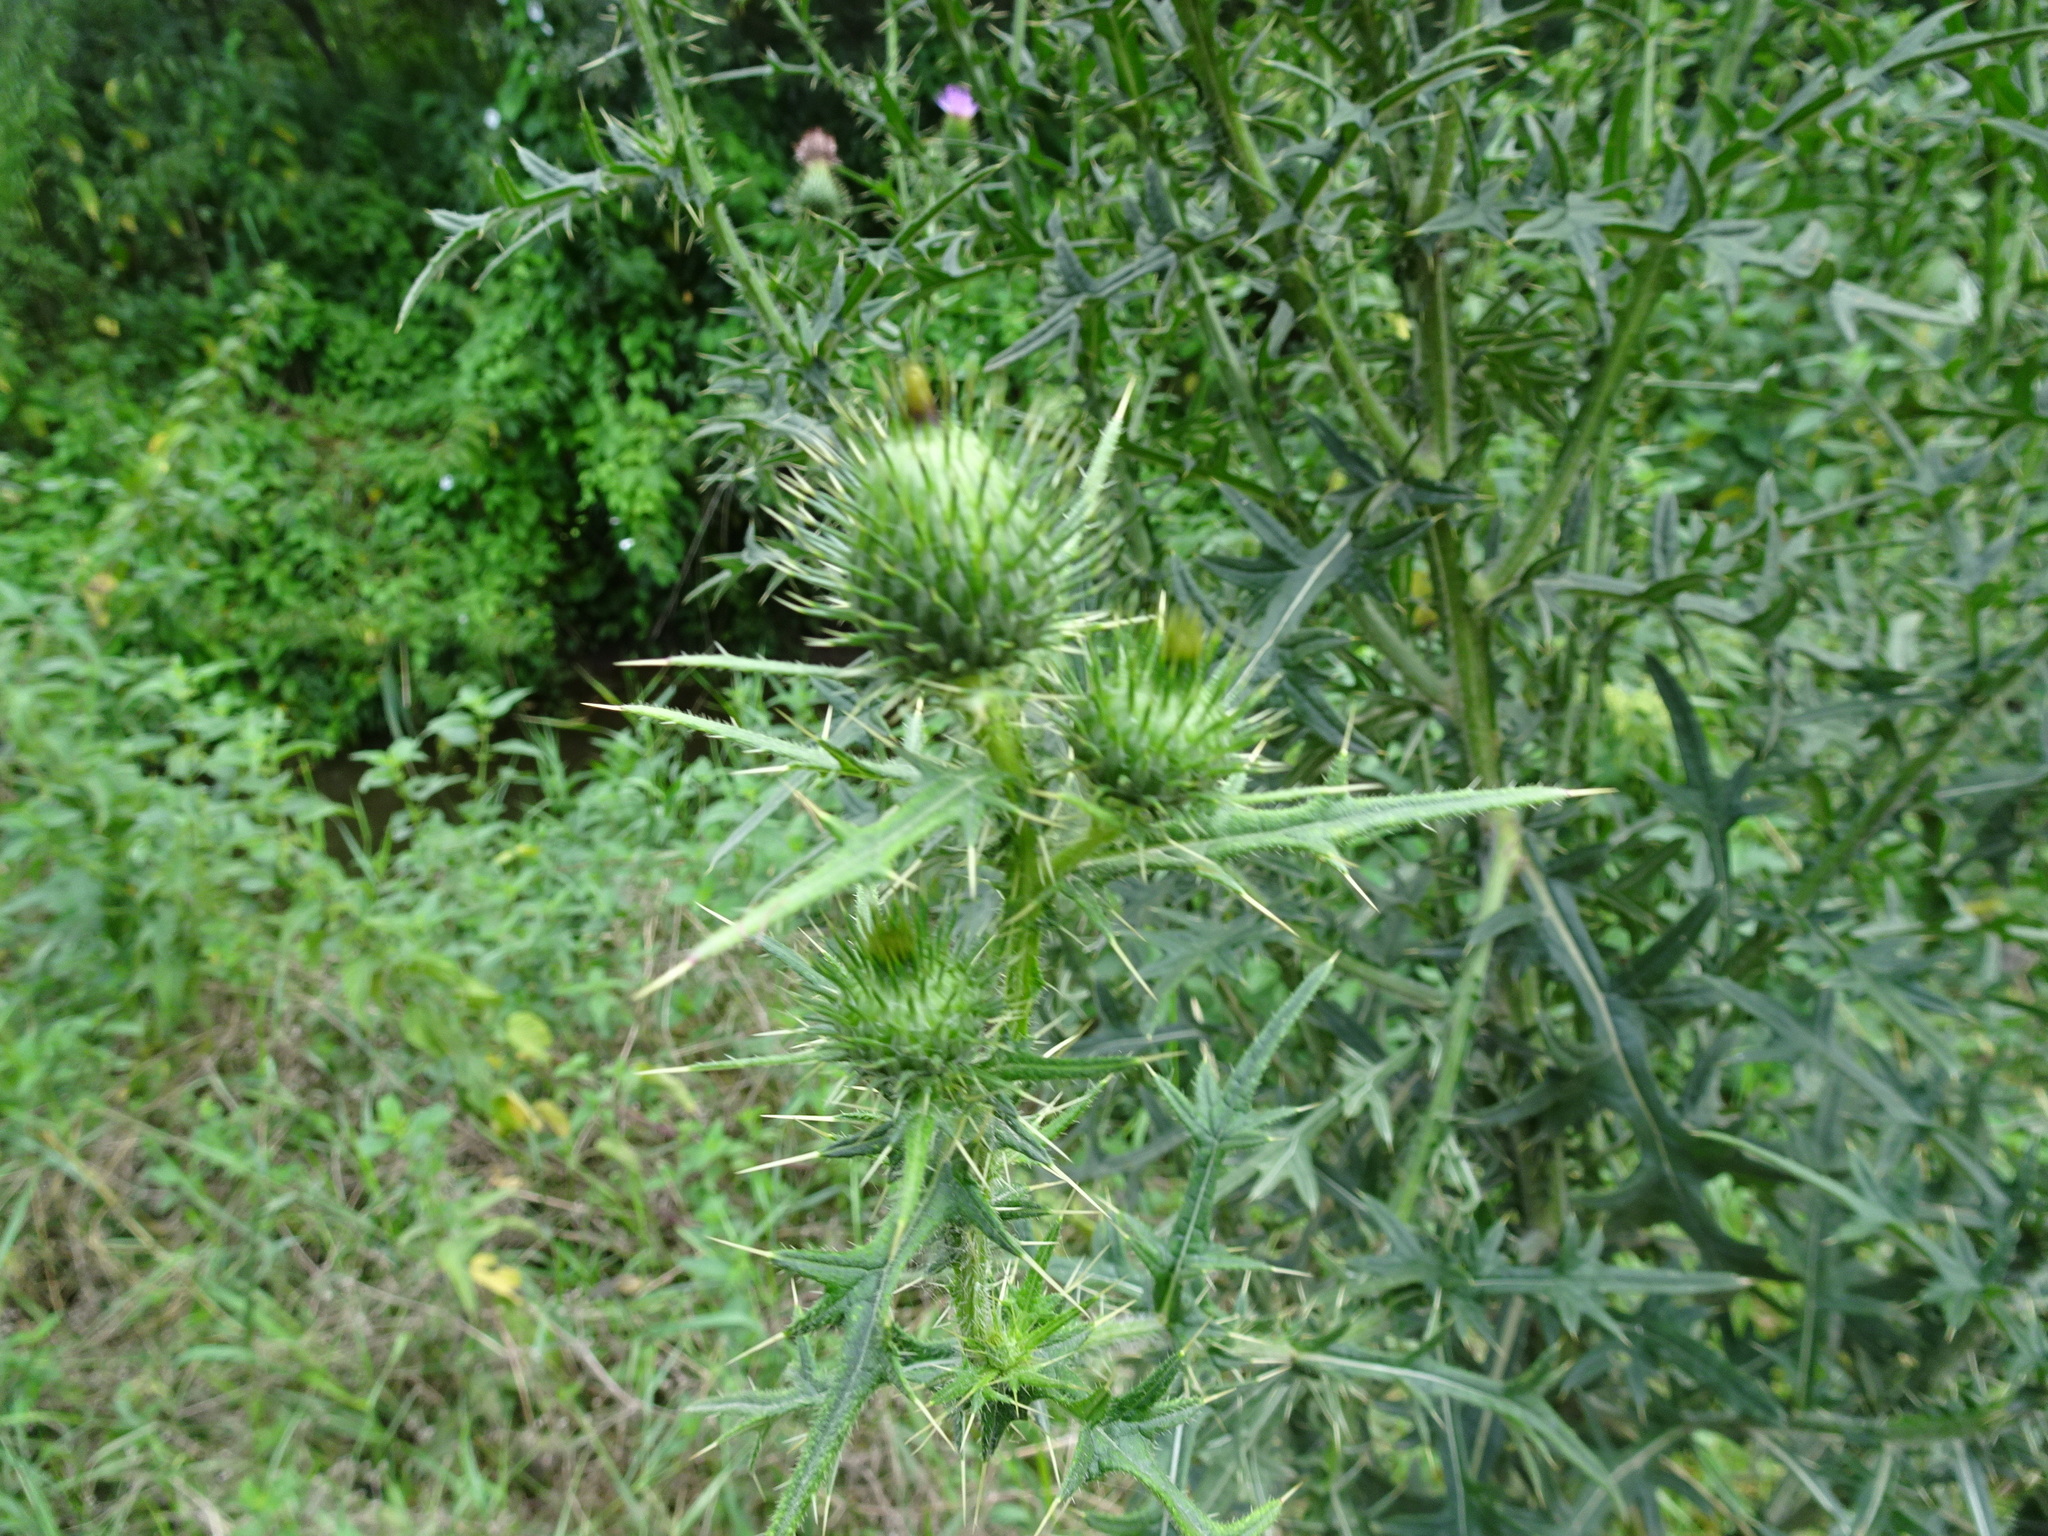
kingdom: Plantae
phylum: Tracheophyta
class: Magnoliopsida
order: Asterales
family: Asteraceae
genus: Cirsium
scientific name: Cirsium vulgare
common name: Bull thistle
